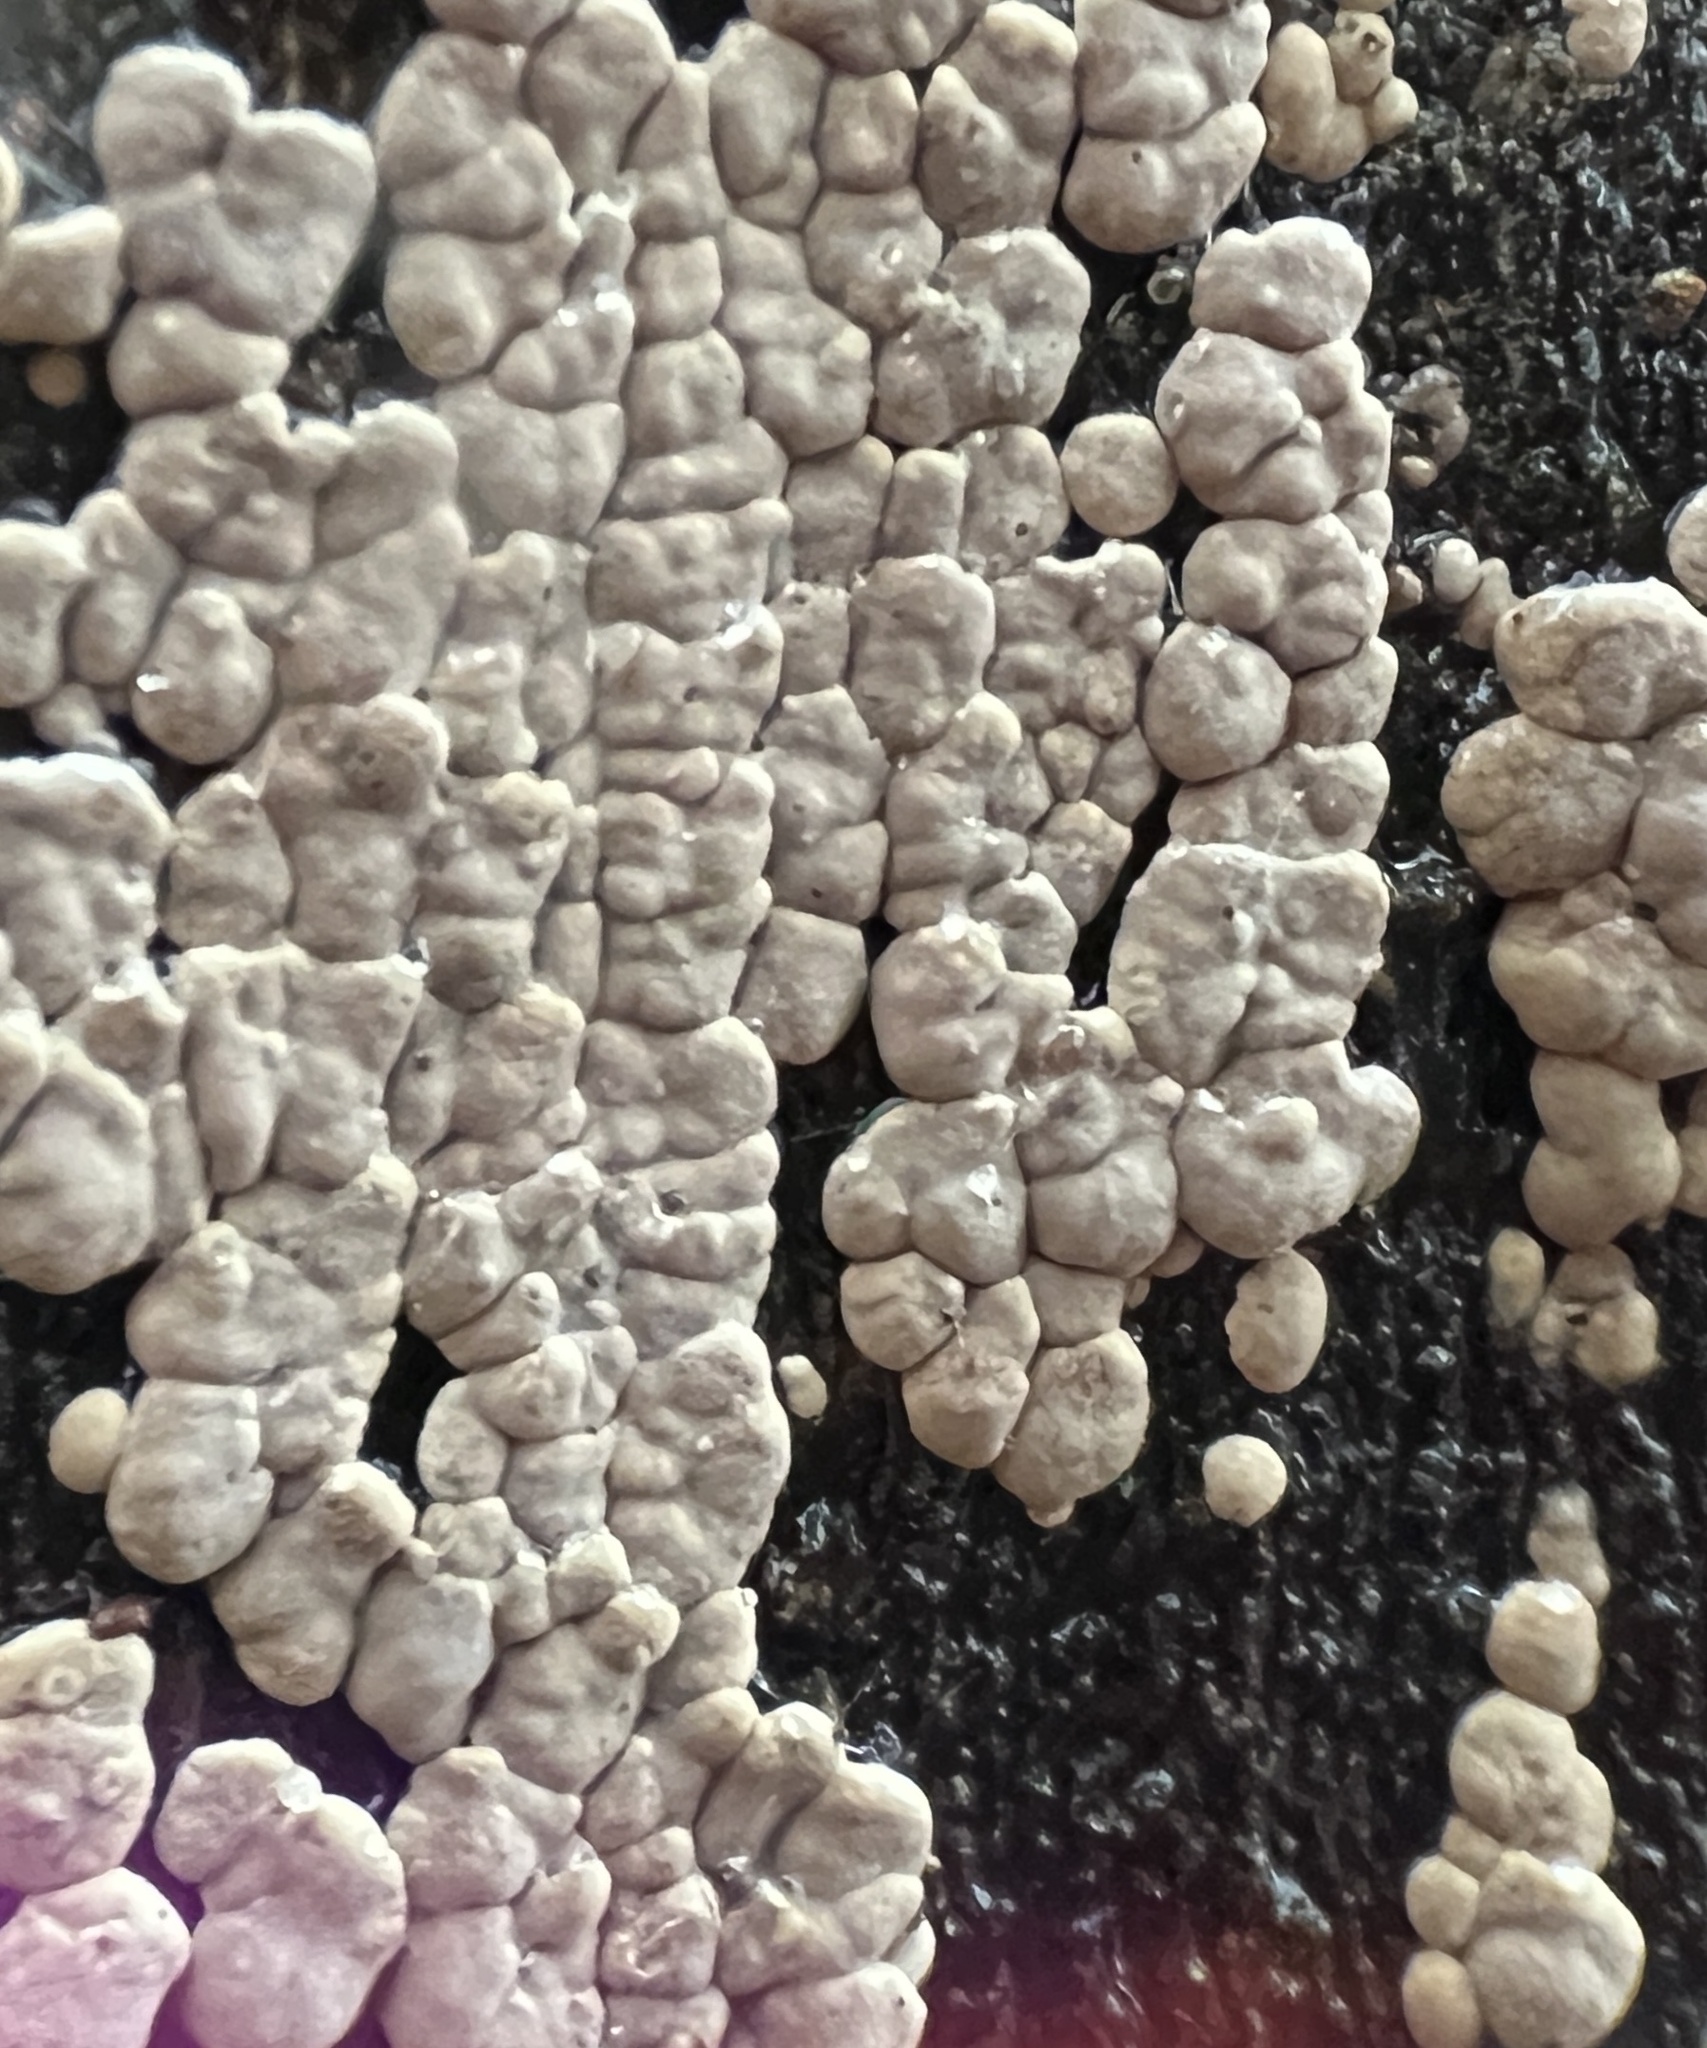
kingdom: Fungi
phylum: Basidiomycota
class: Agaricomycetes
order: Russulales
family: Stereaceae
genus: Xylobolus
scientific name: Xylobolus frustulatus
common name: Ceramic parchment
